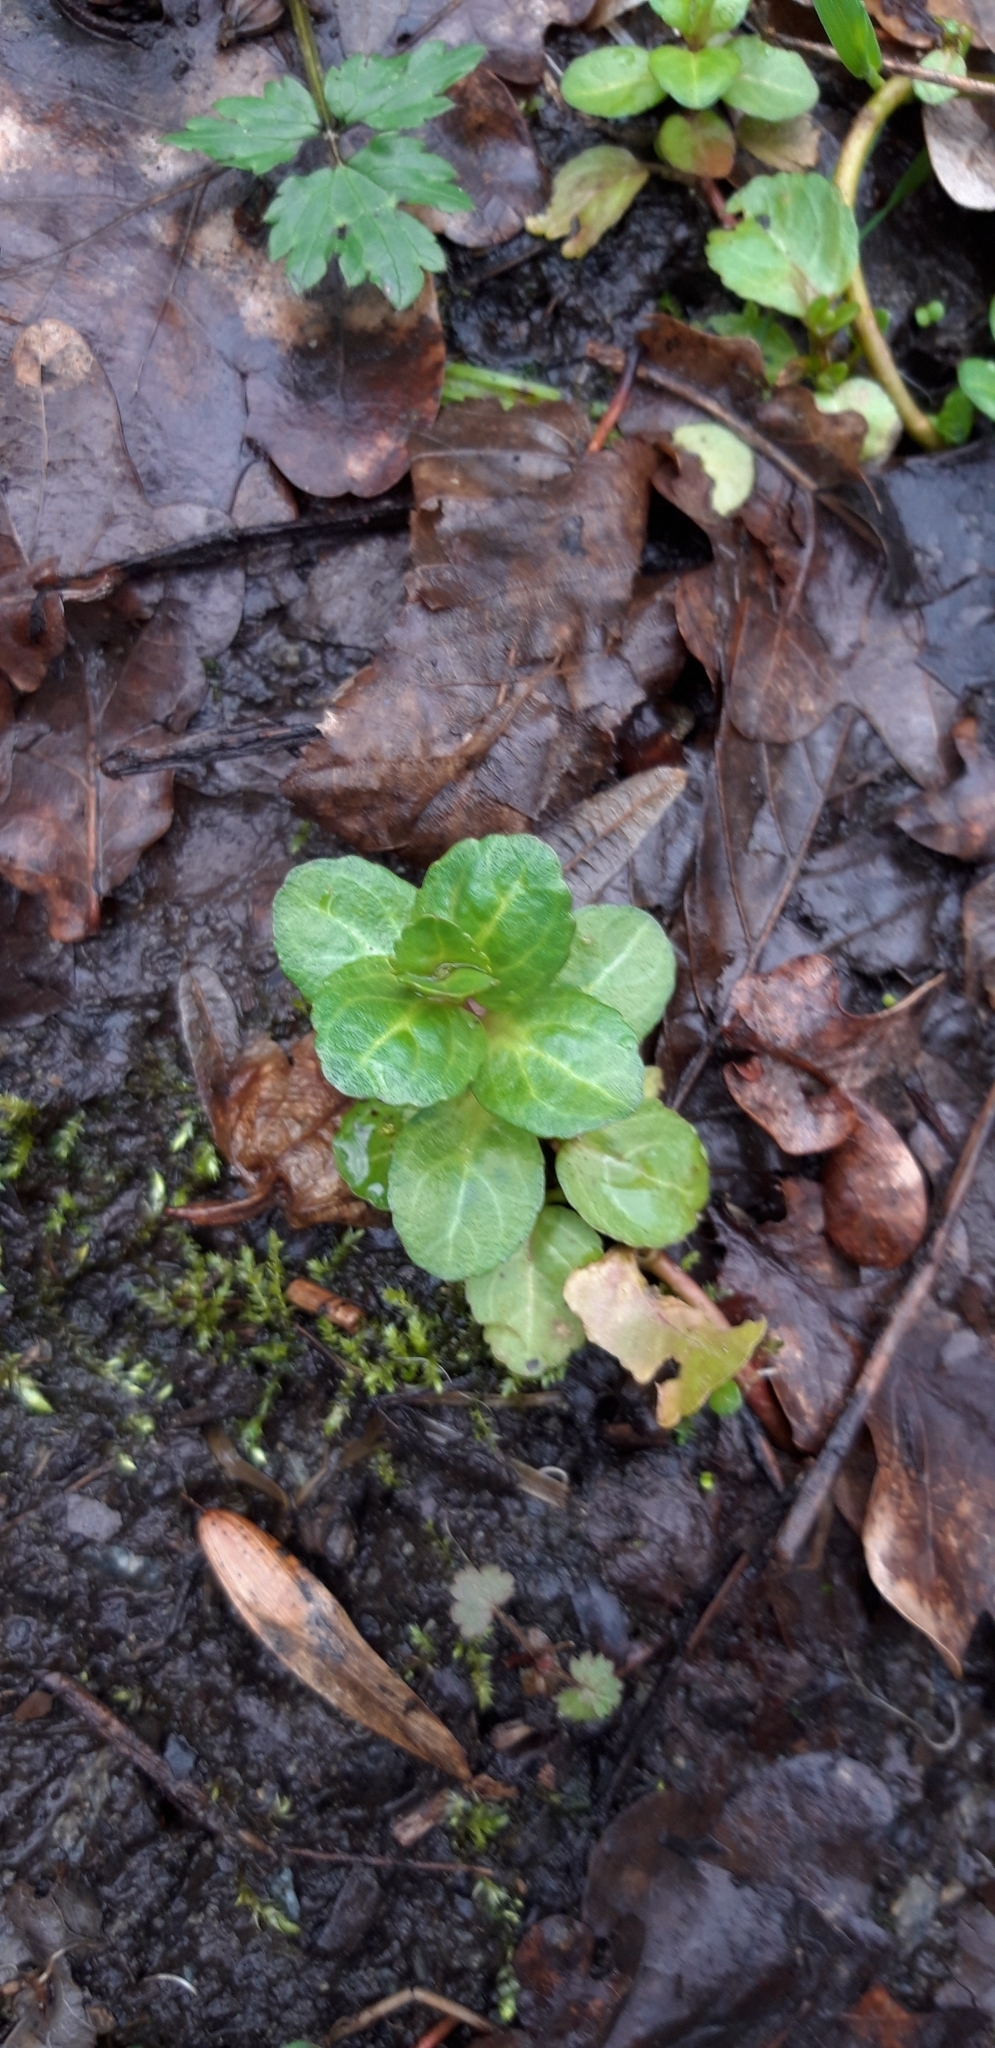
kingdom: Plantae
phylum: Tracheophyta
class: Magnoliopsida
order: Lamiales
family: Plantaginaceae
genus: Veronica
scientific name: Veronica beccabunga
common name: Brooklime
